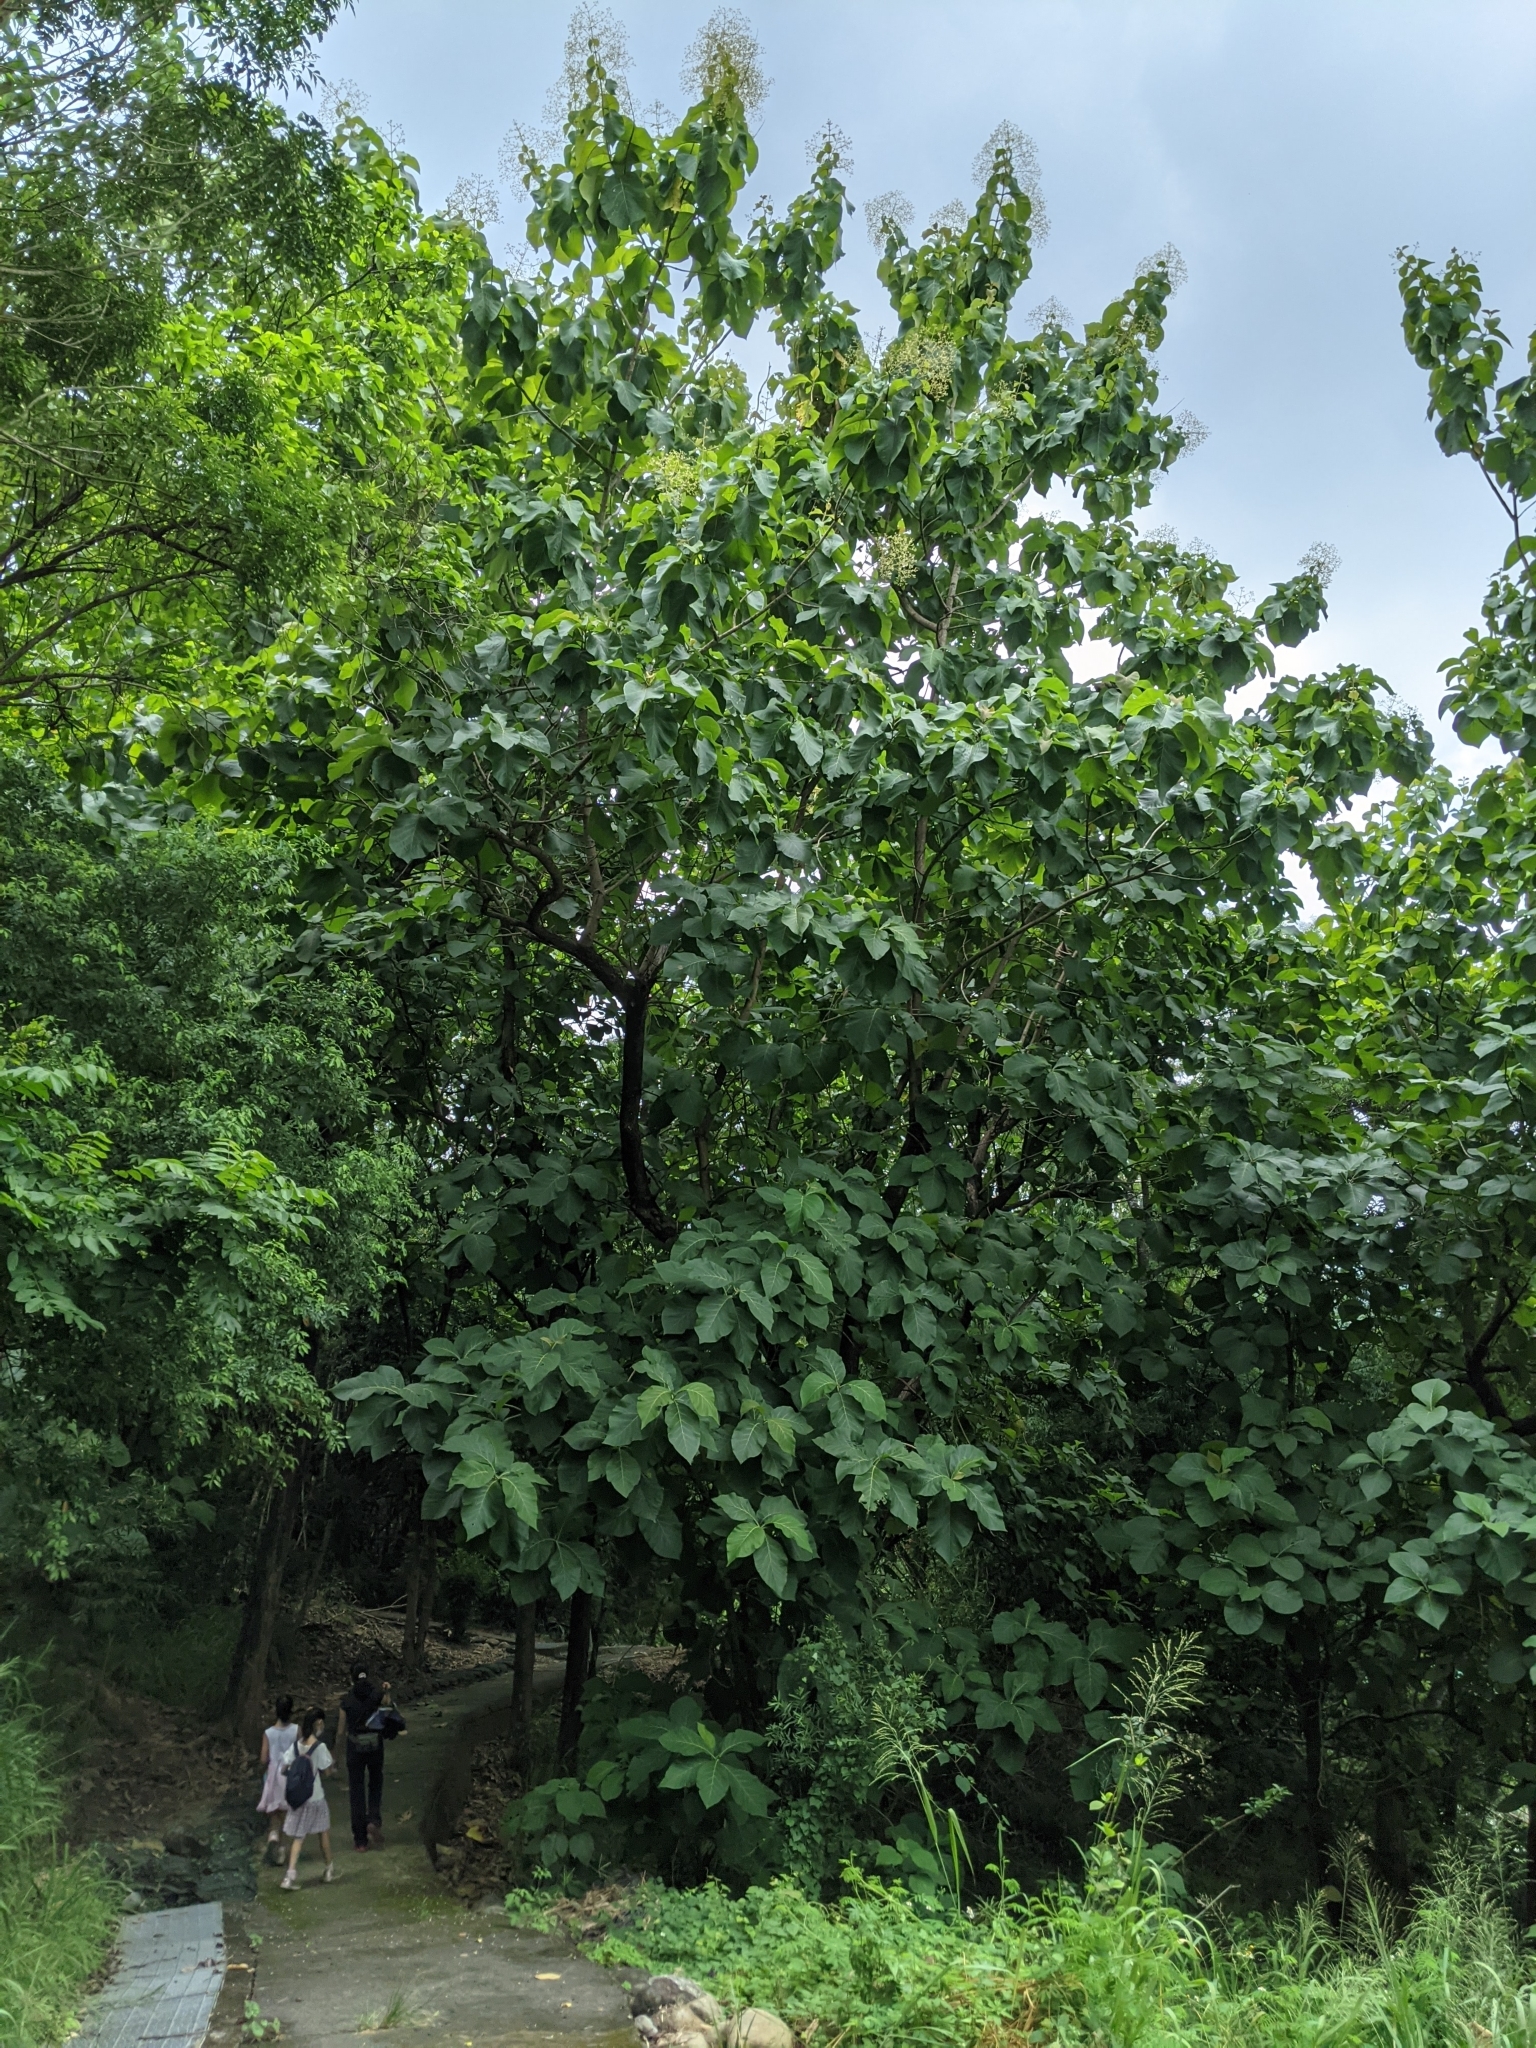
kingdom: Plantae
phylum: Tracheophyta
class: Magnoliopsida
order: Lamiales
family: Lamiaceae
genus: Tectona
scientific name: Tectona grandis
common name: Teak
